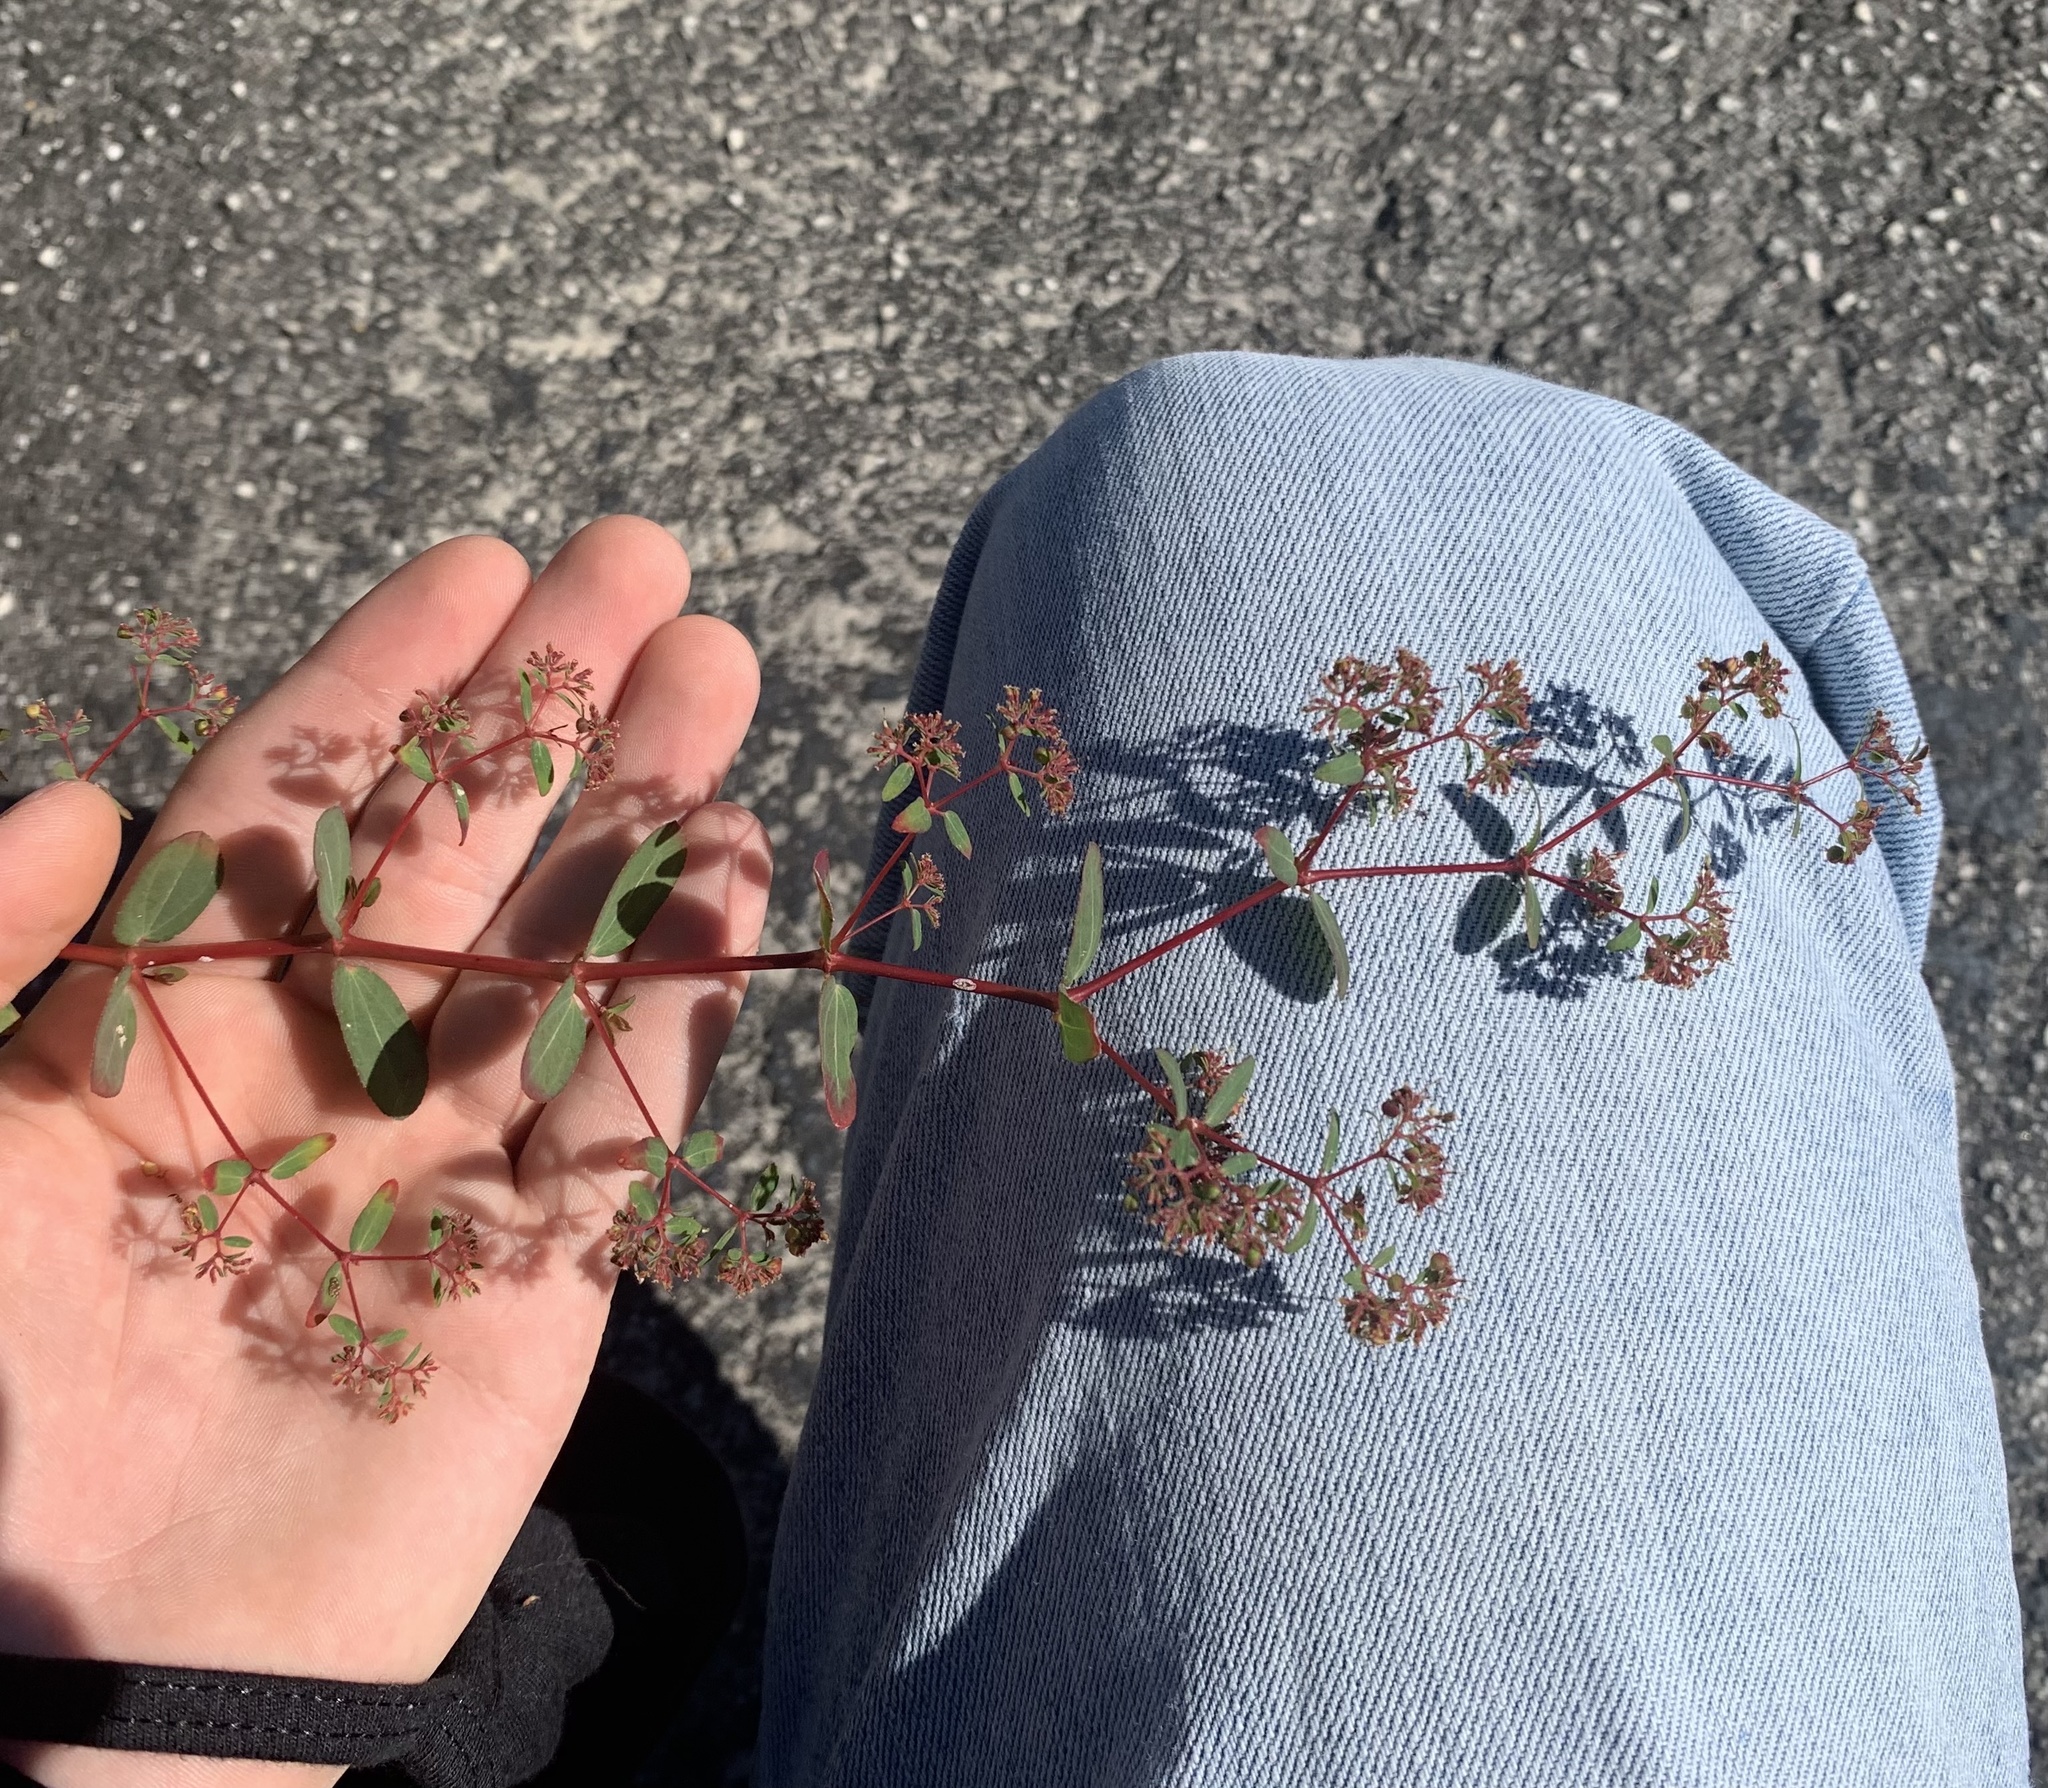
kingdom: Plantae
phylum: Tracheophyta
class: Magnoliopsida
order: Malpighiales
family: Euphorbiaceae
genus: Euphorbia
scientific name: Euphorbia hyssopifolia
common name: Hyssopleaf sandmat
